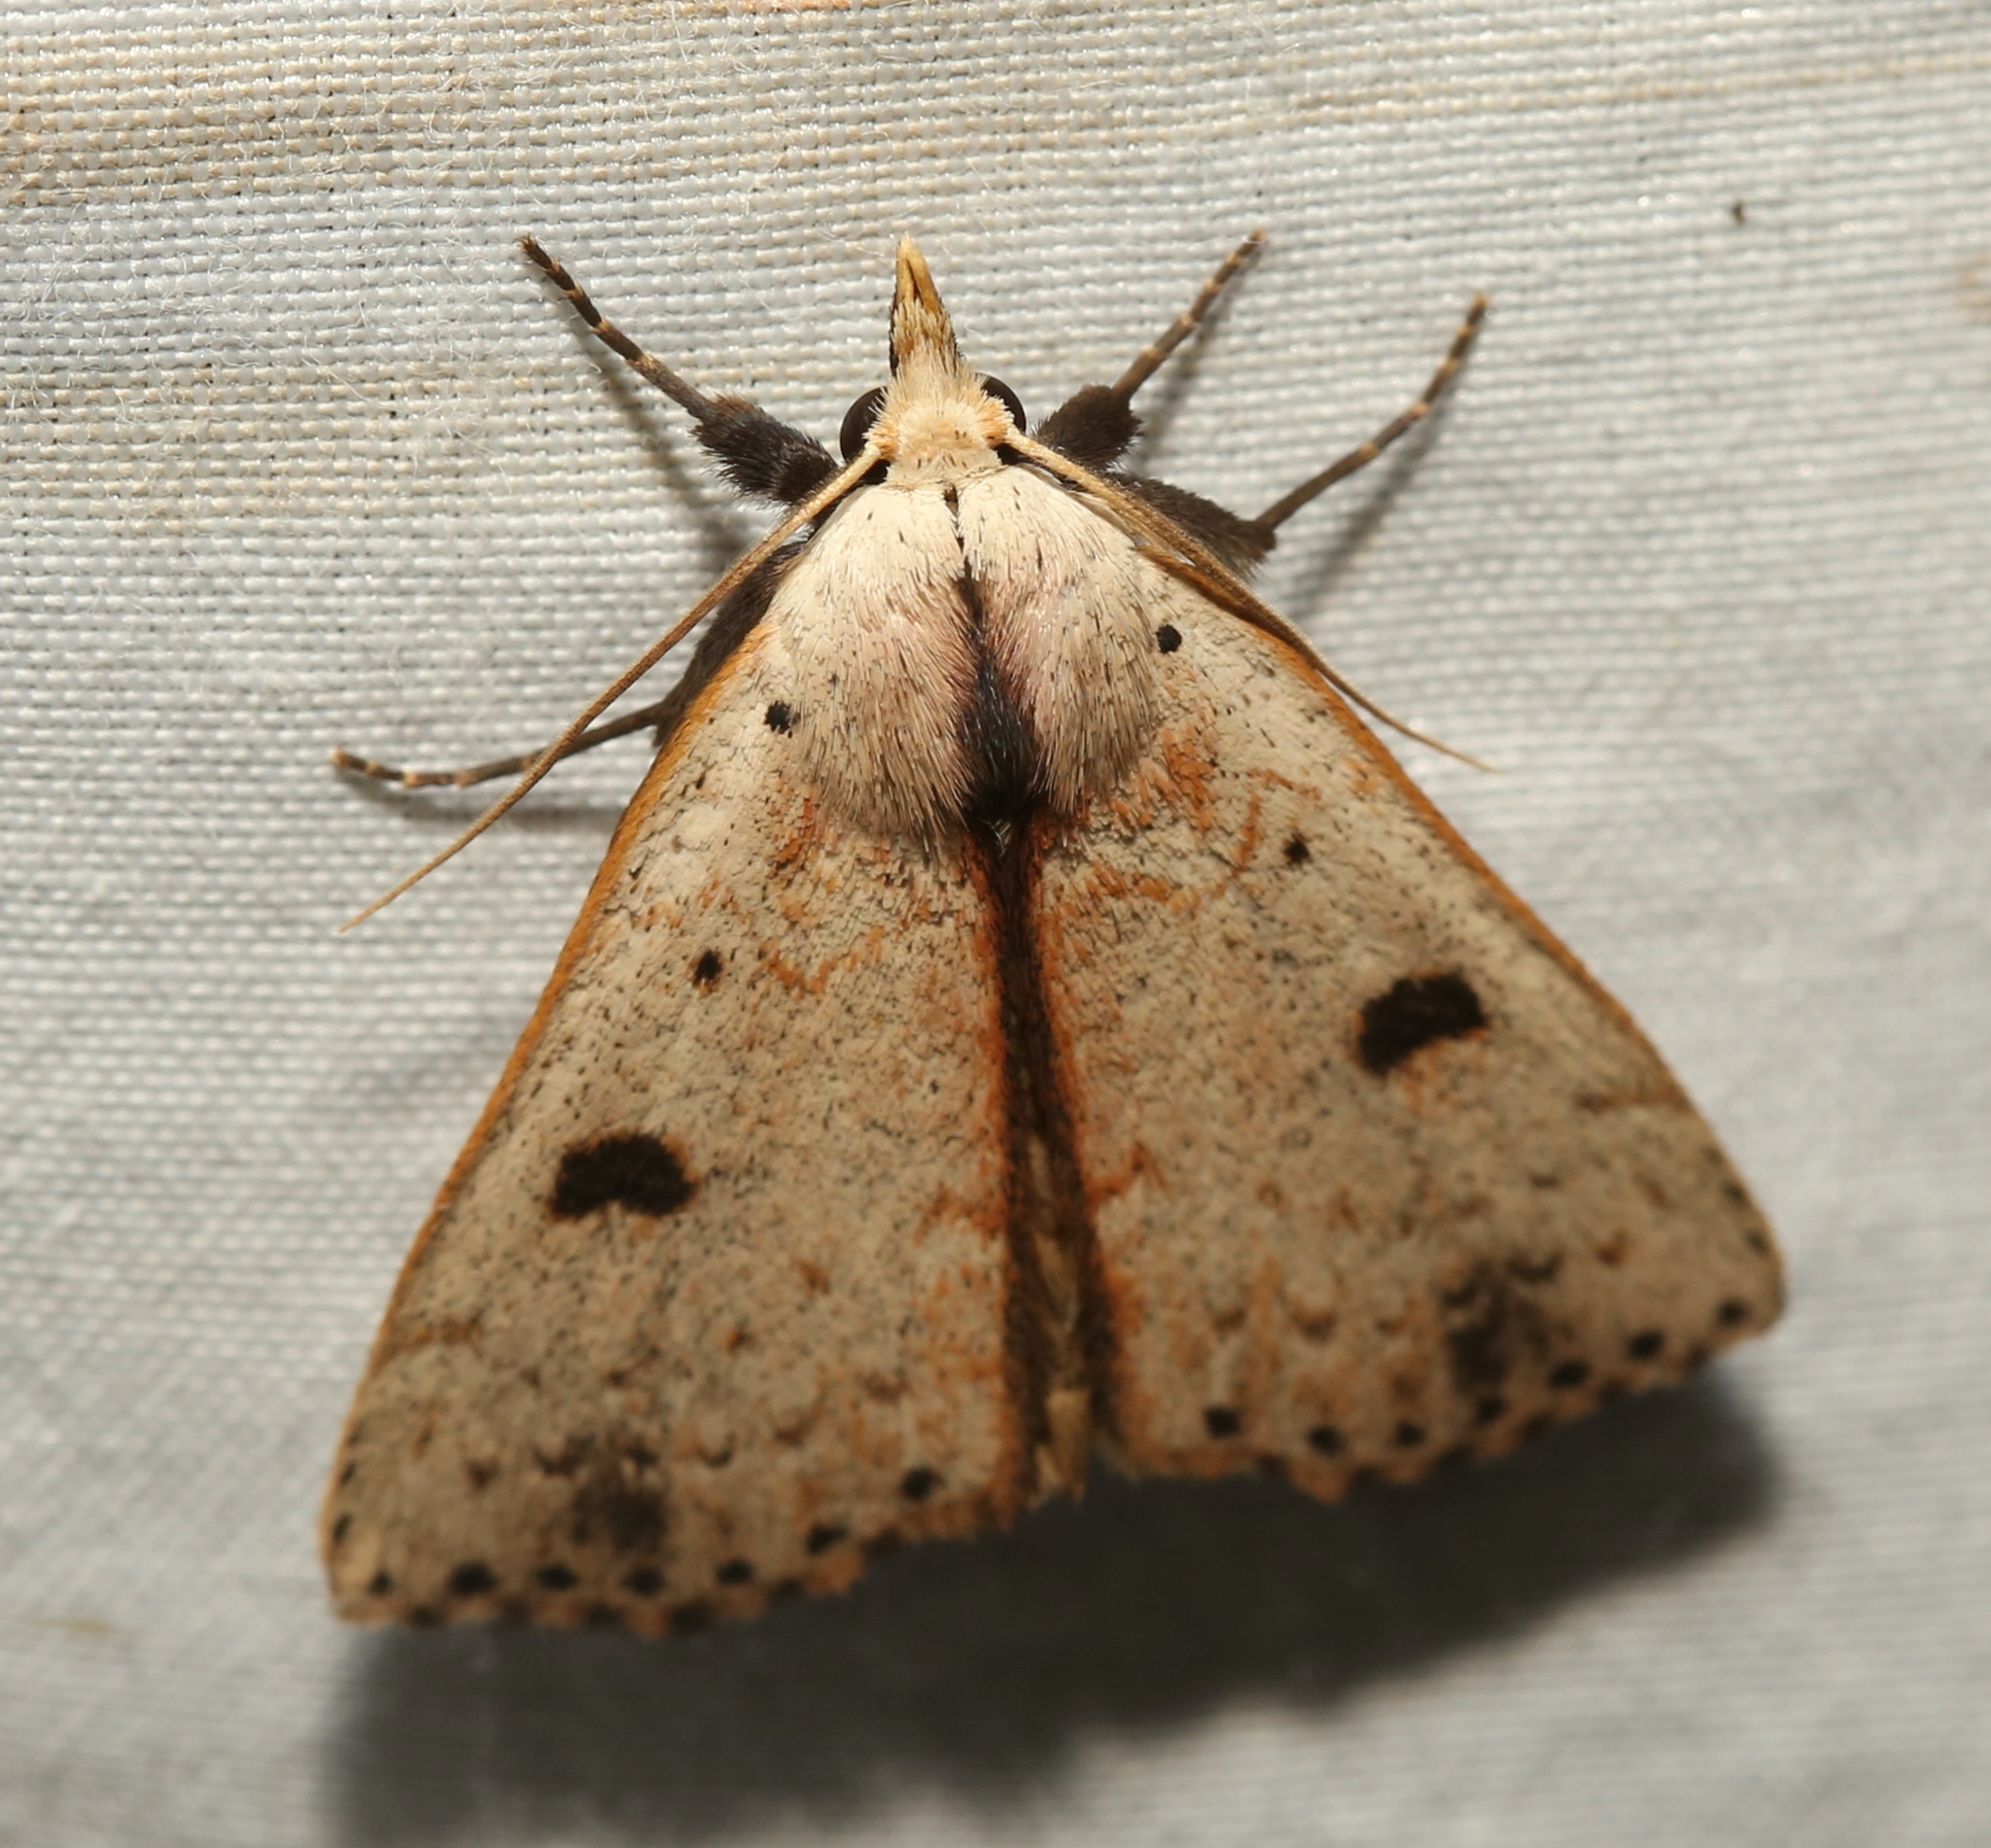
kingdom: Animalia
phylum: Arthropoda
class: Insecta
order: Lepidoptera
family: Erebidae
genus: Scolecocampa
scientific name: Scolecocampa liburna
